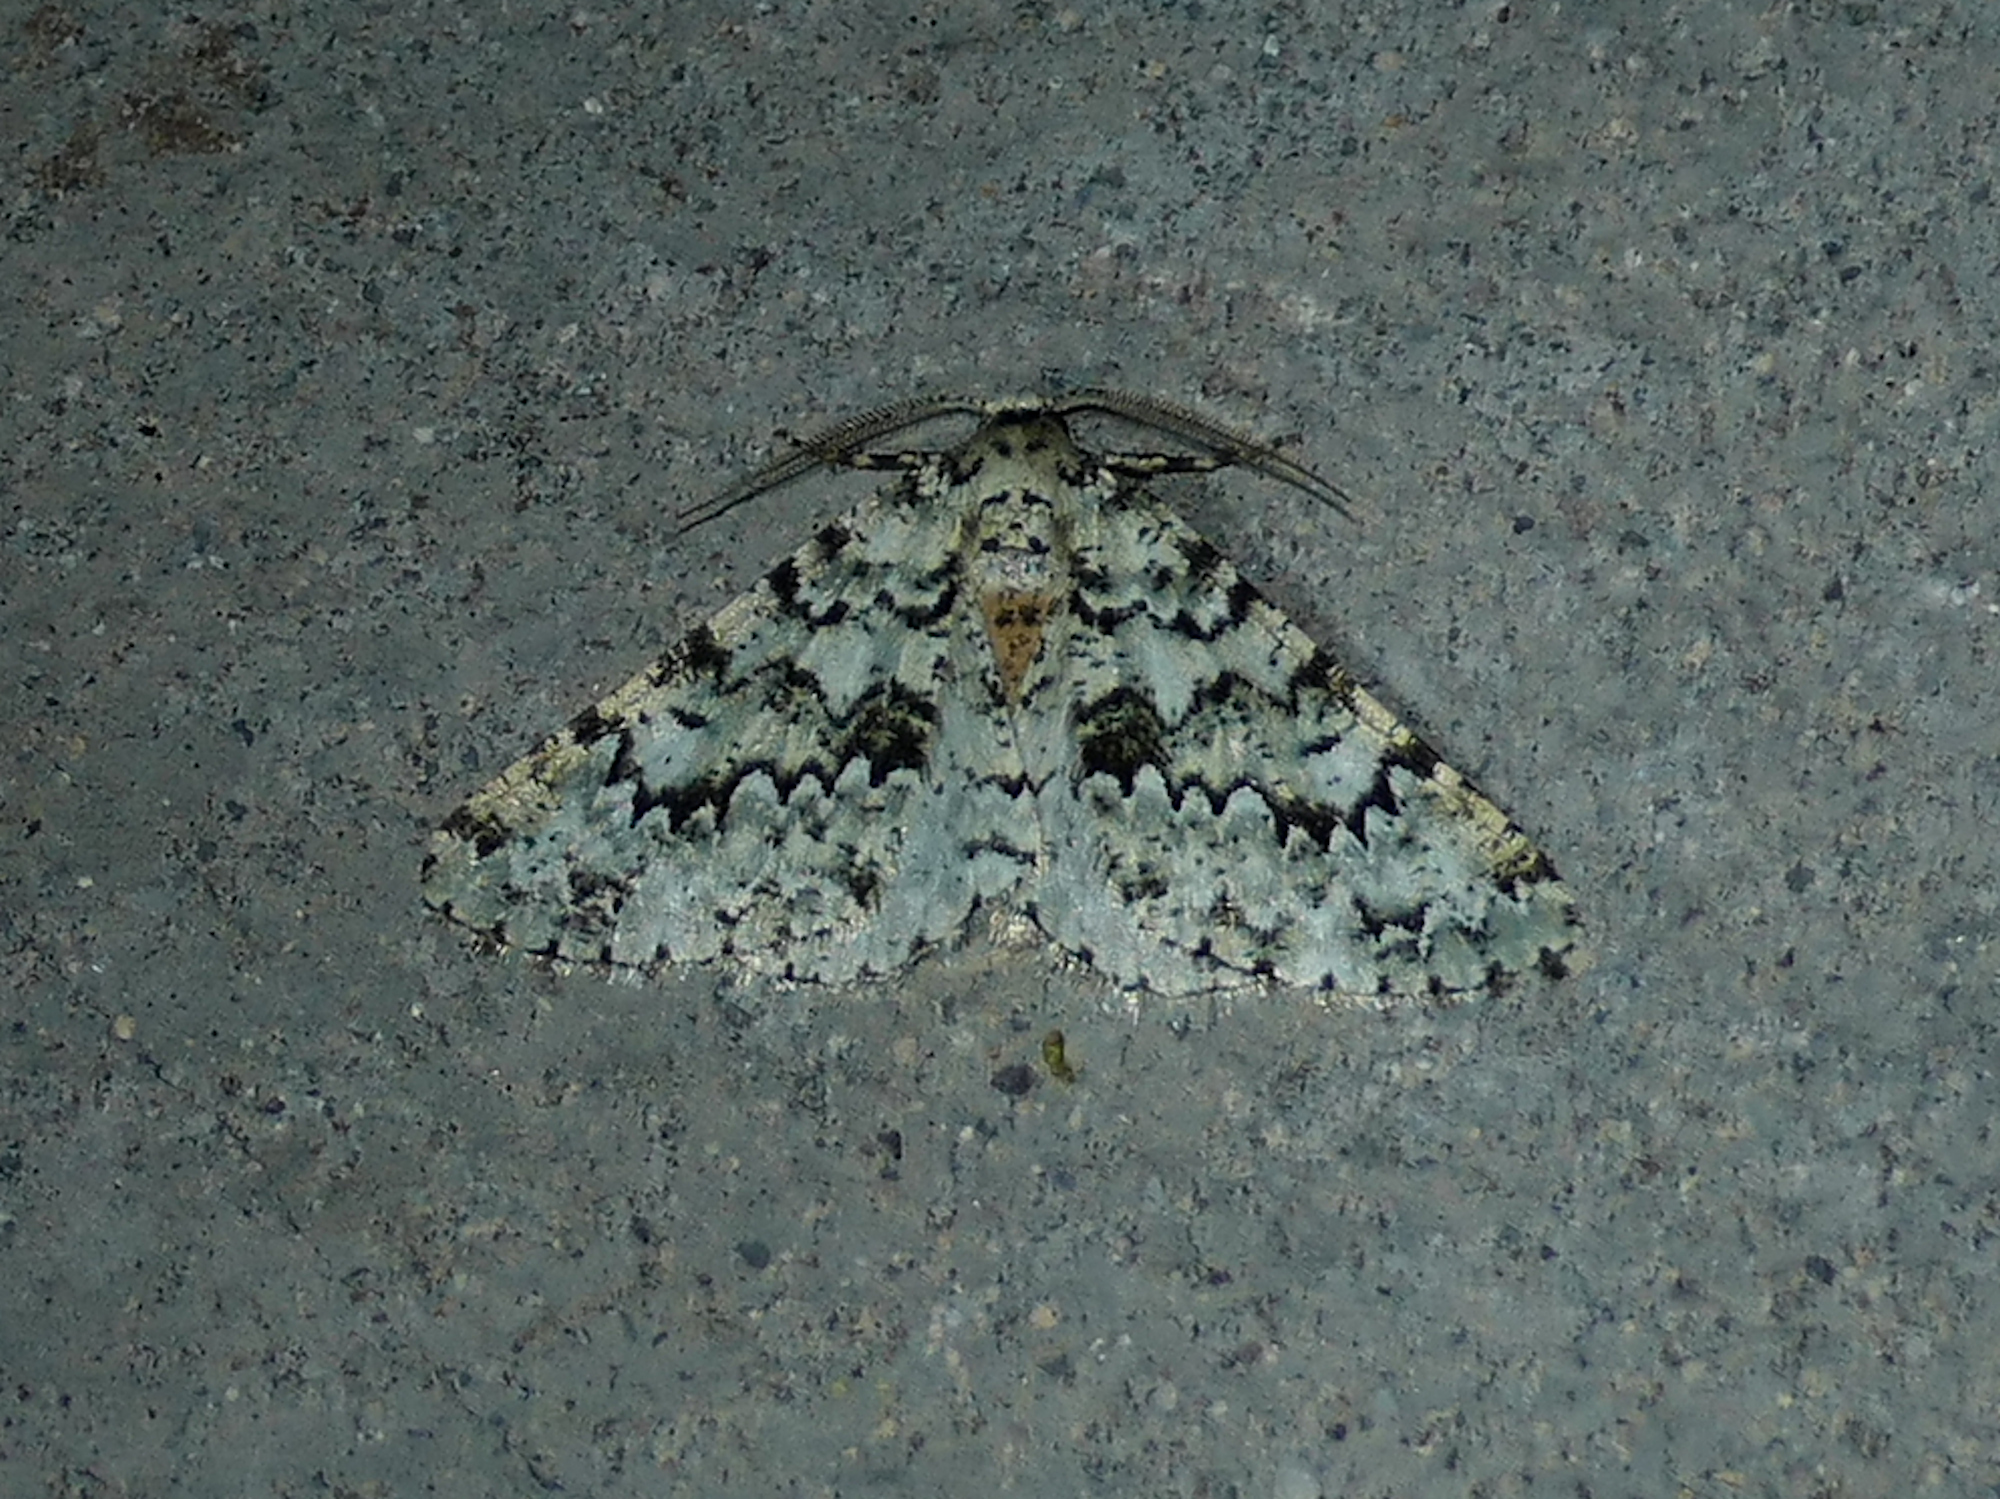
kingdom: Animalia
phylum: Arthropoda
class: Insecta
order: Lepidoptera
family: Geometridae
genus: Tracheops
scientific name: Tracheops bolteri
